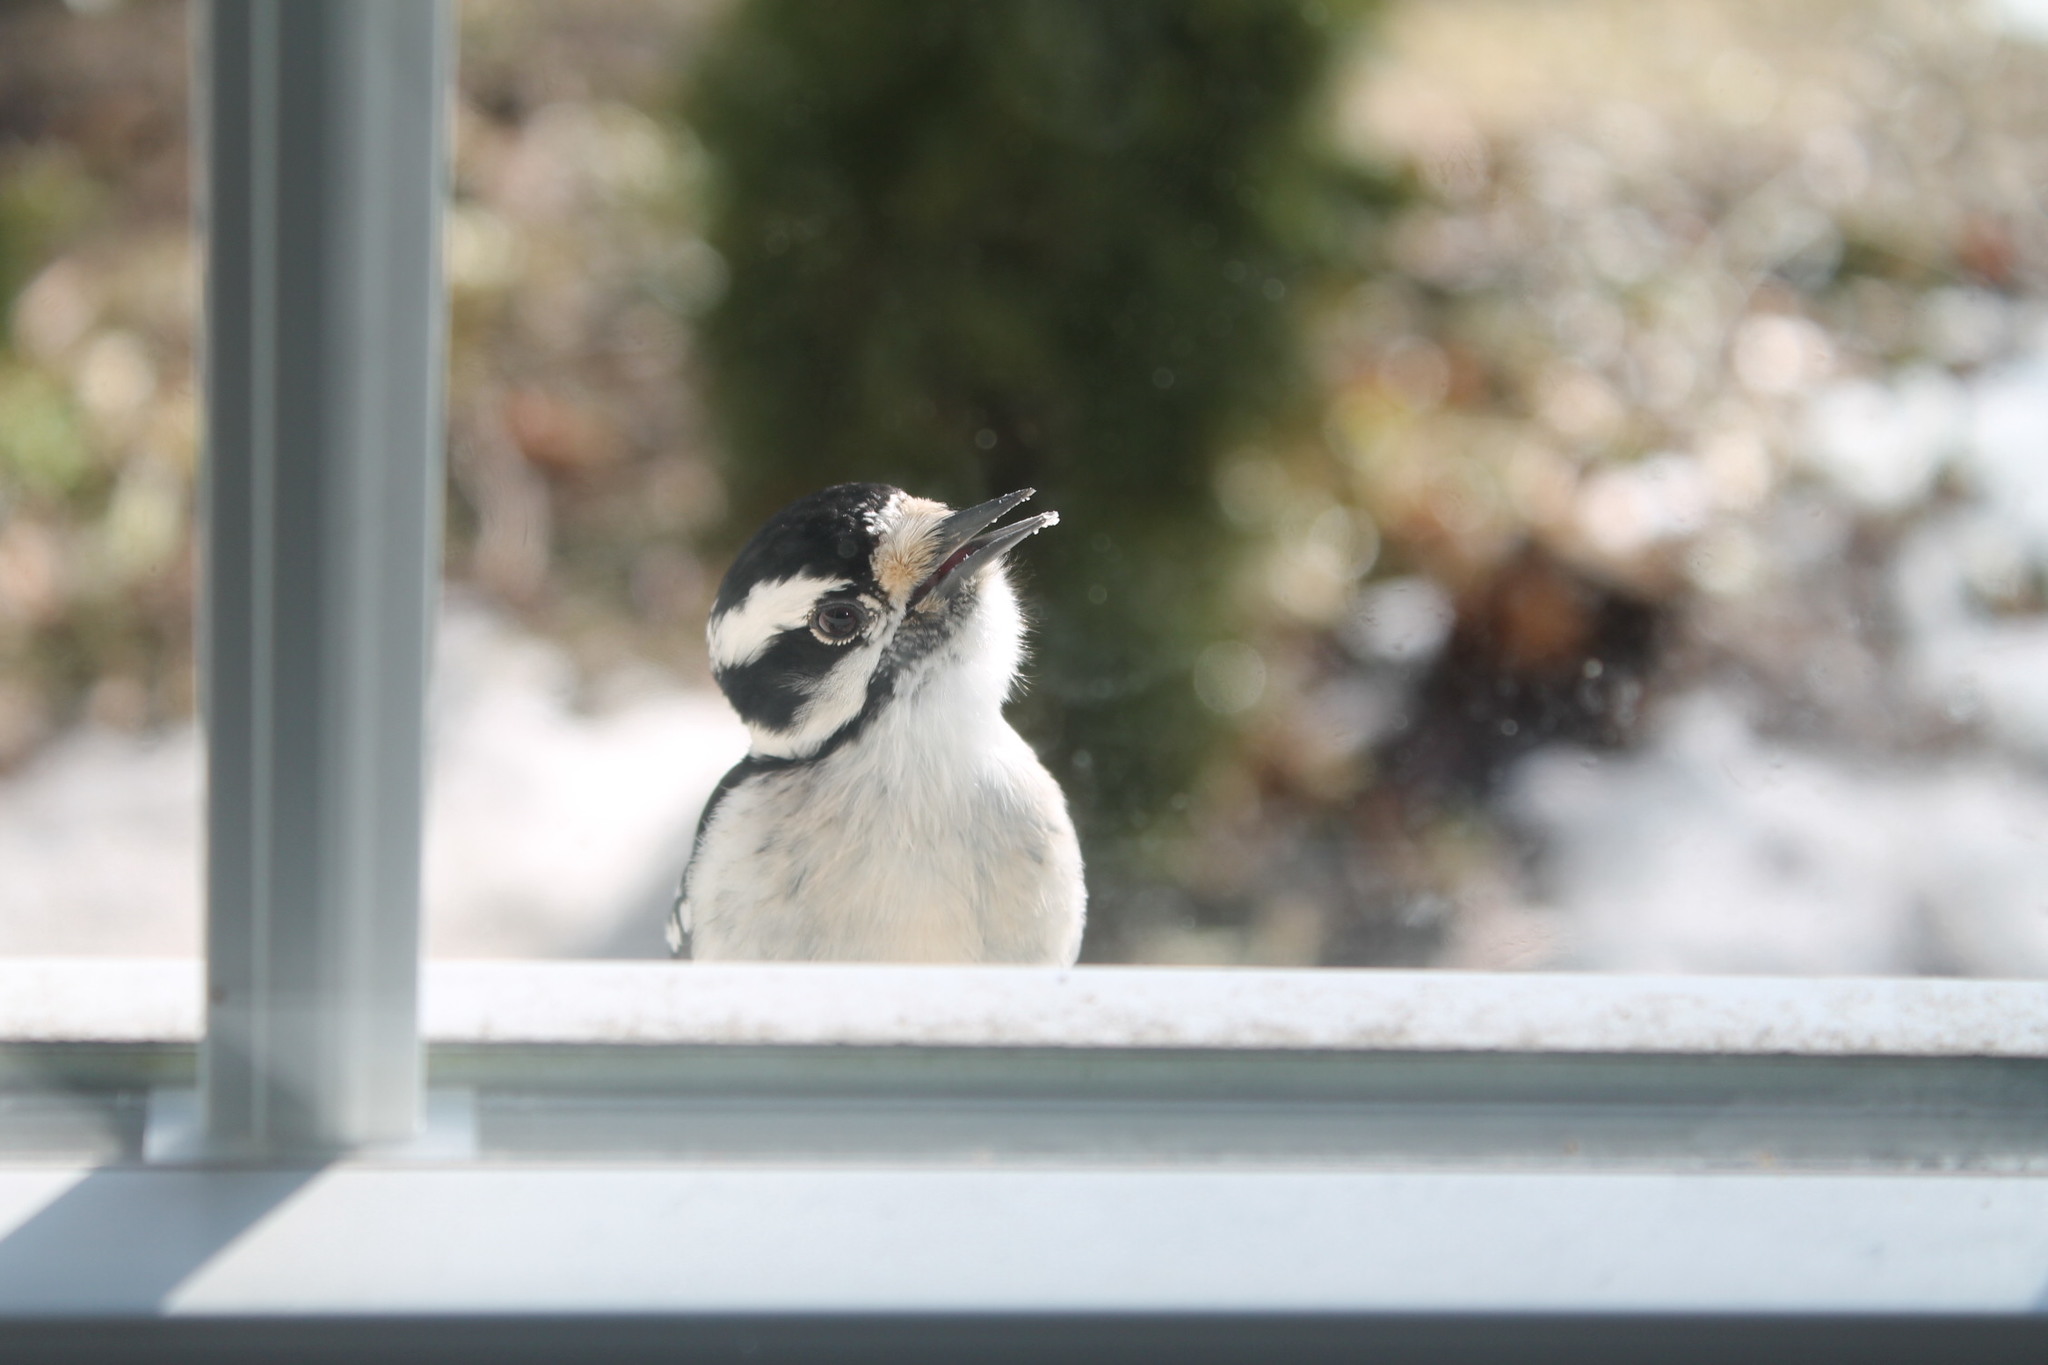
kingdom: Animalia
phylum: Chordata
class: Aves
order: Piciformes
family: Picidae
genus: Dryobates
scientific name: Dryobates pubescens
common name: Downy woodpecker
